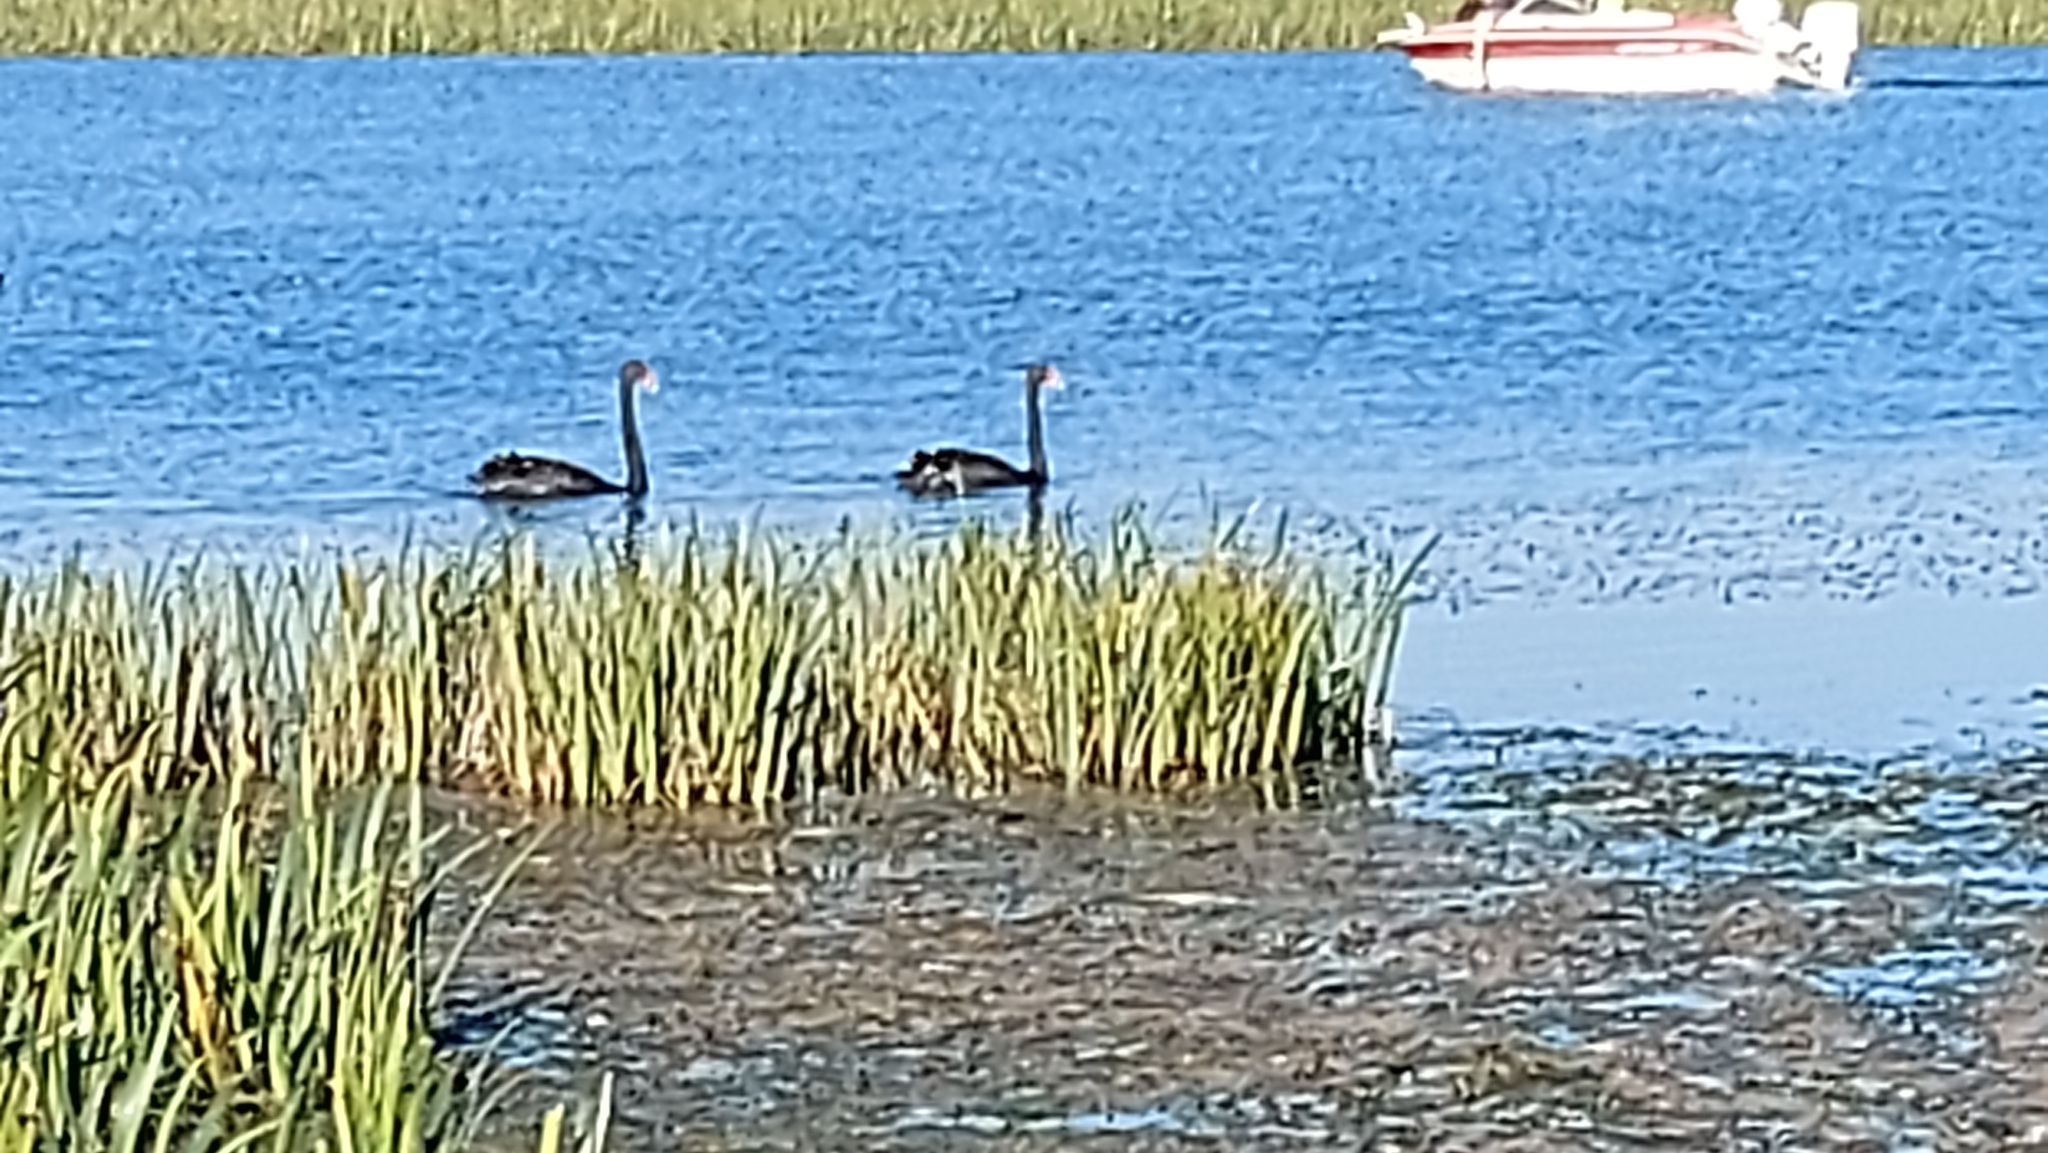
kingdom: Animalia
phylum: Chordata
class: Aves
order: Anseriformes
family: Anatidae
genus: Cygnus
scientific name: Cygnus atratus
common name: Black swan
